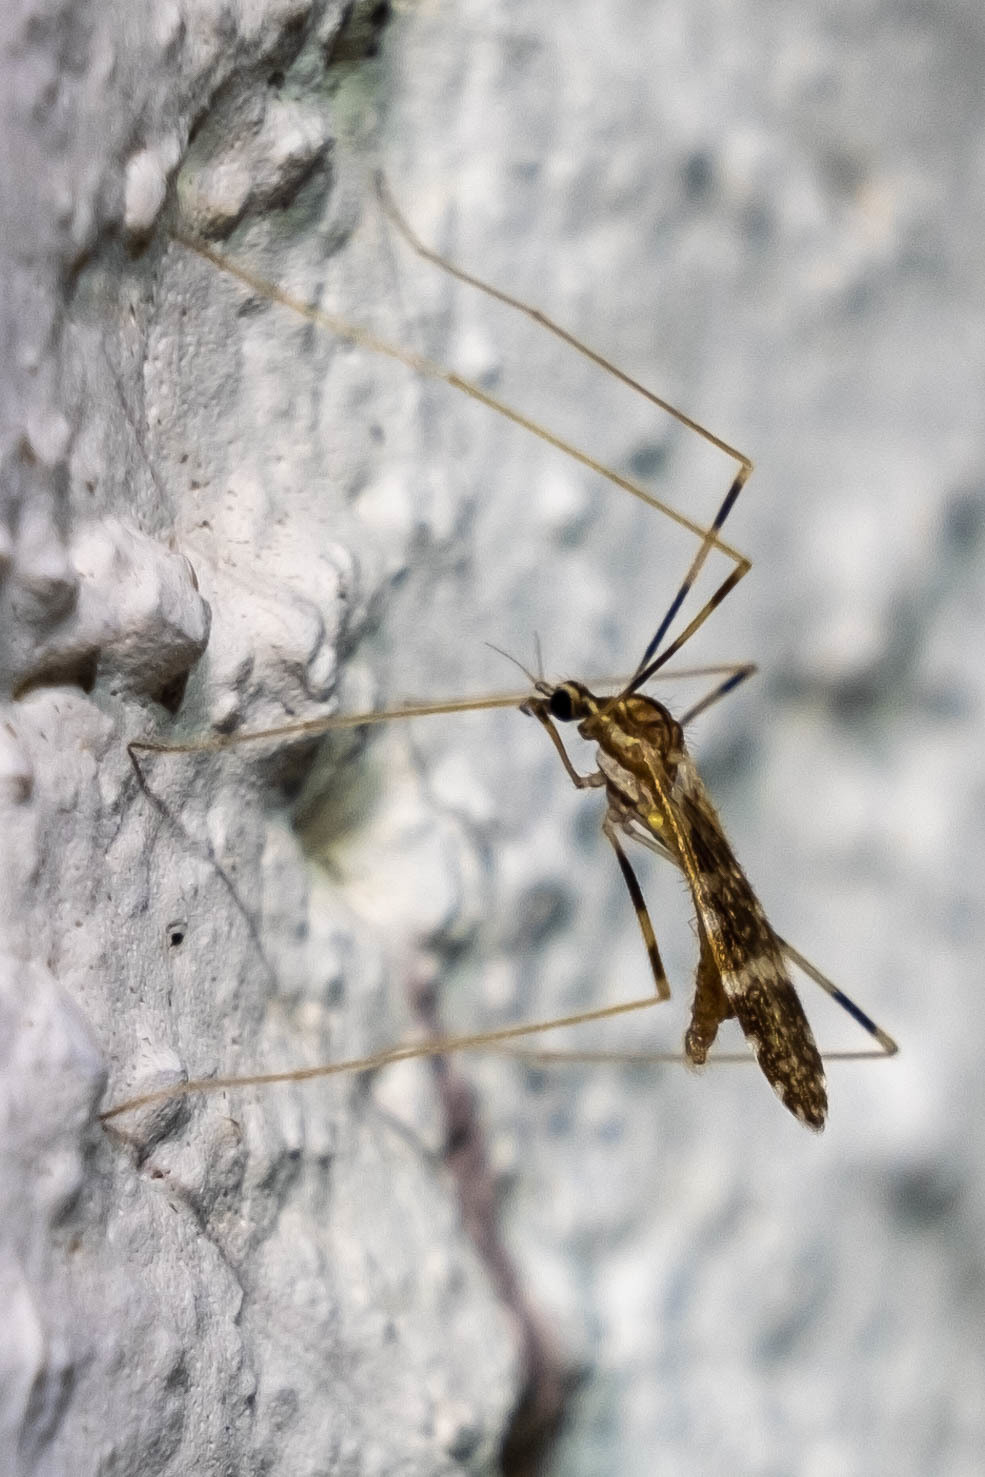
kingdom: Animalia
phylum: Arthropoda
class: Insecta
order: Diptera
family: Limoniidae
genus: Erioptera
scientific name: Erioptera caliptera
